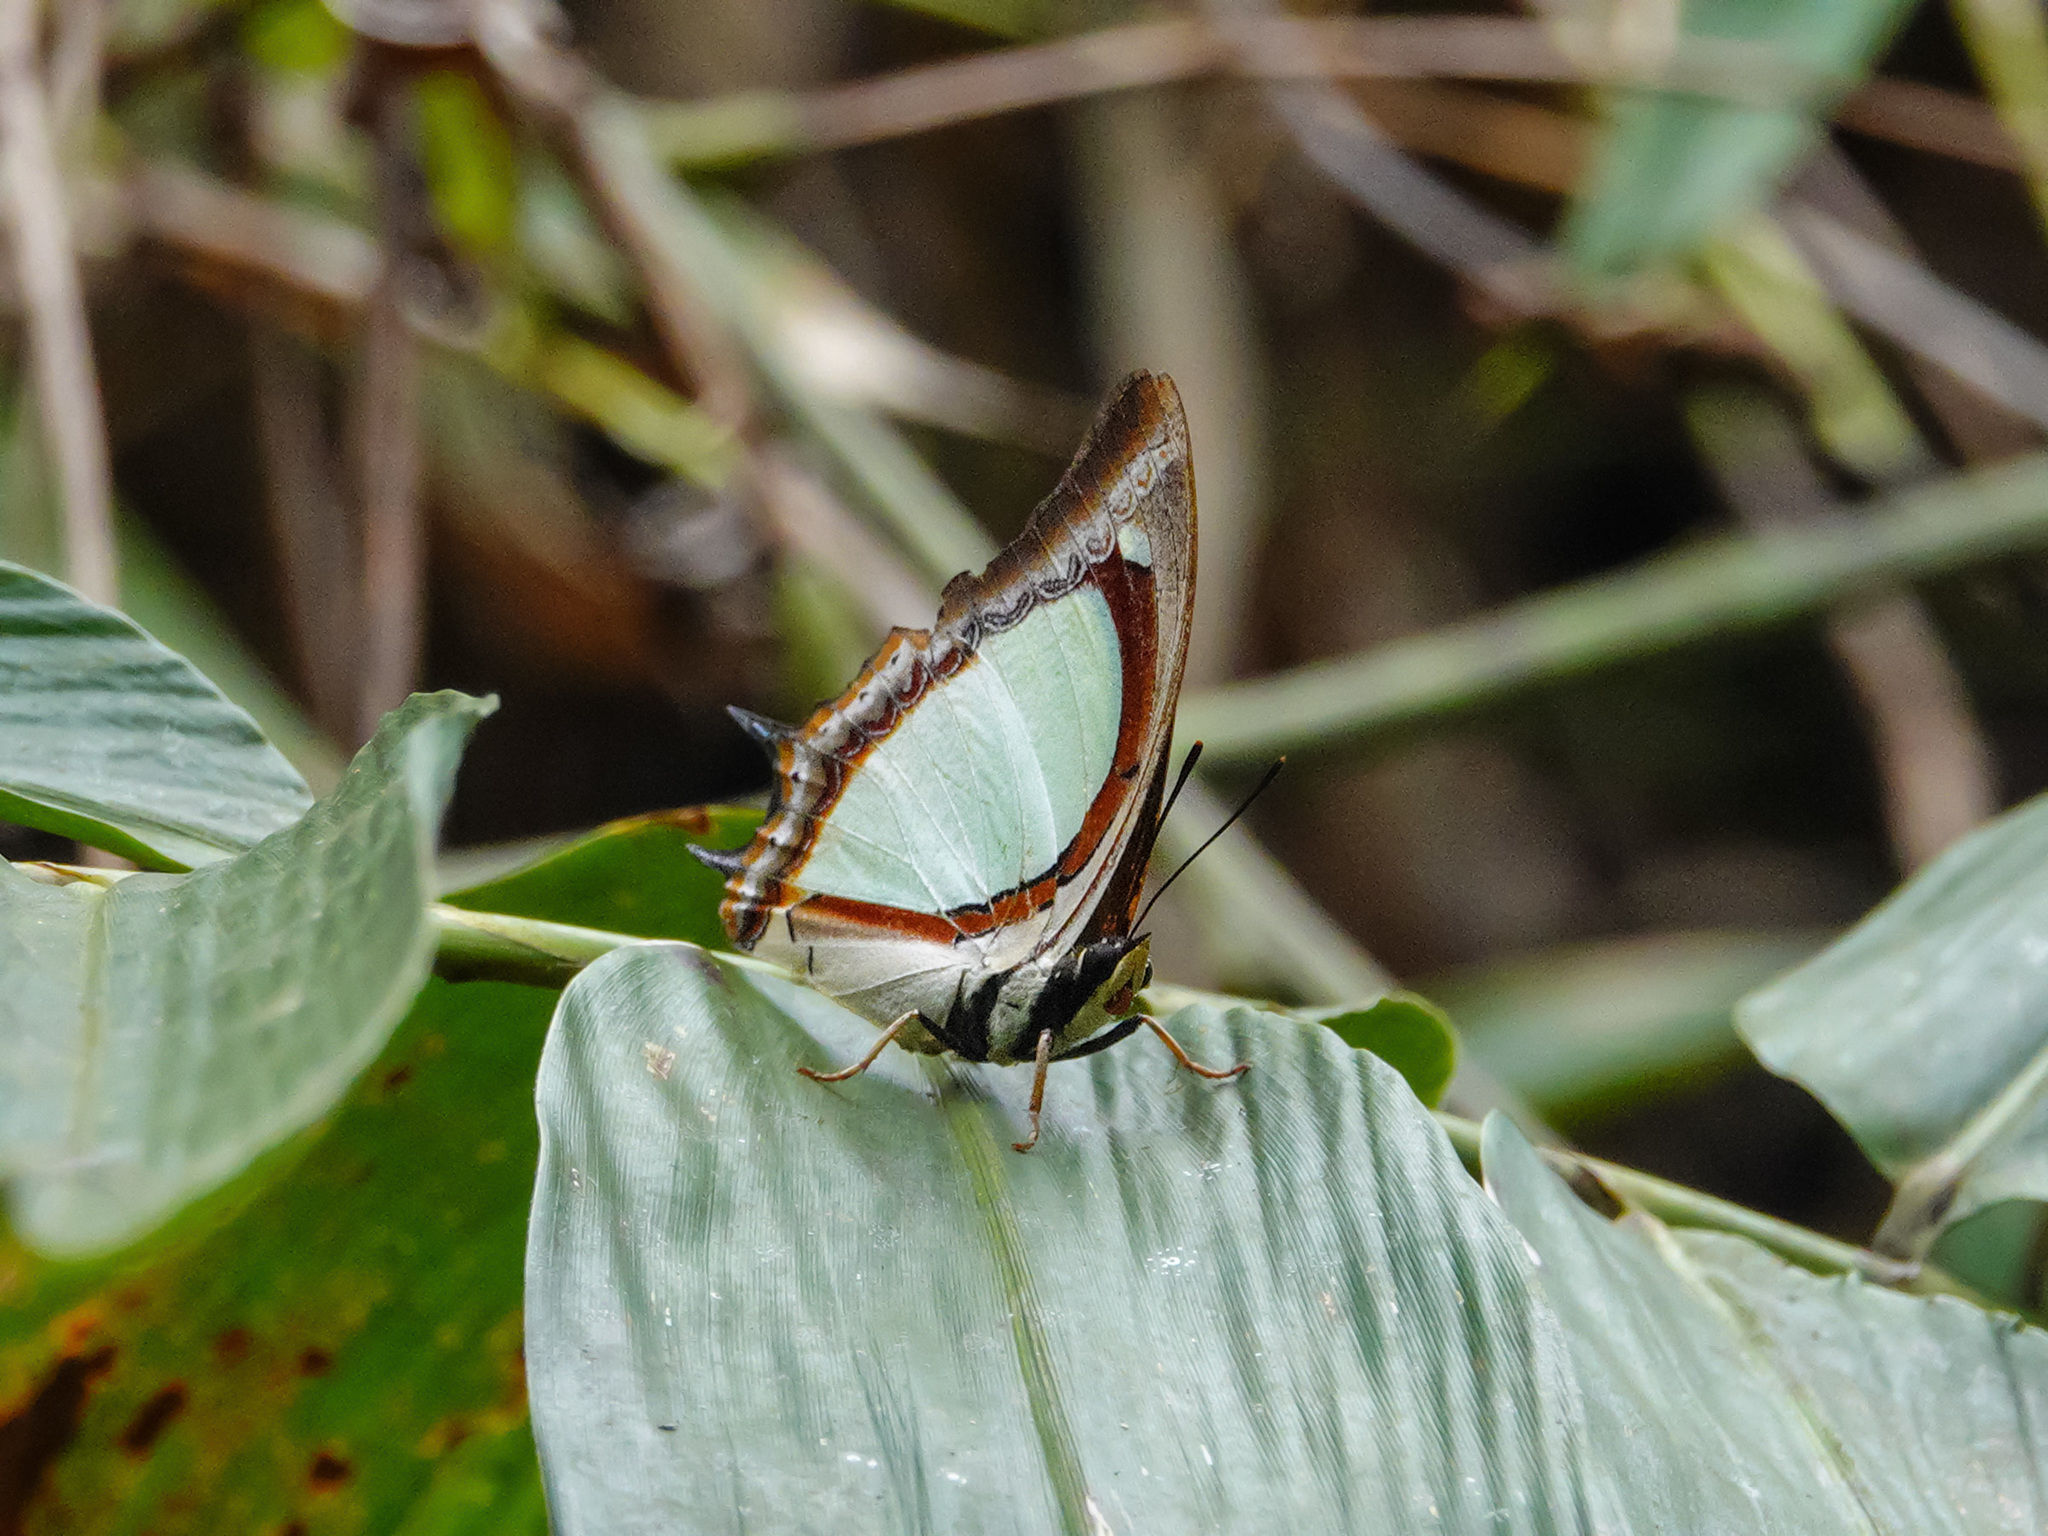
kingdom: Animalia
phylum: Arthropoda
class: Insecta
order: Lepidoptera
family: Nymphalidae
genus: Polyura
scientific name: Polyura jalysus
